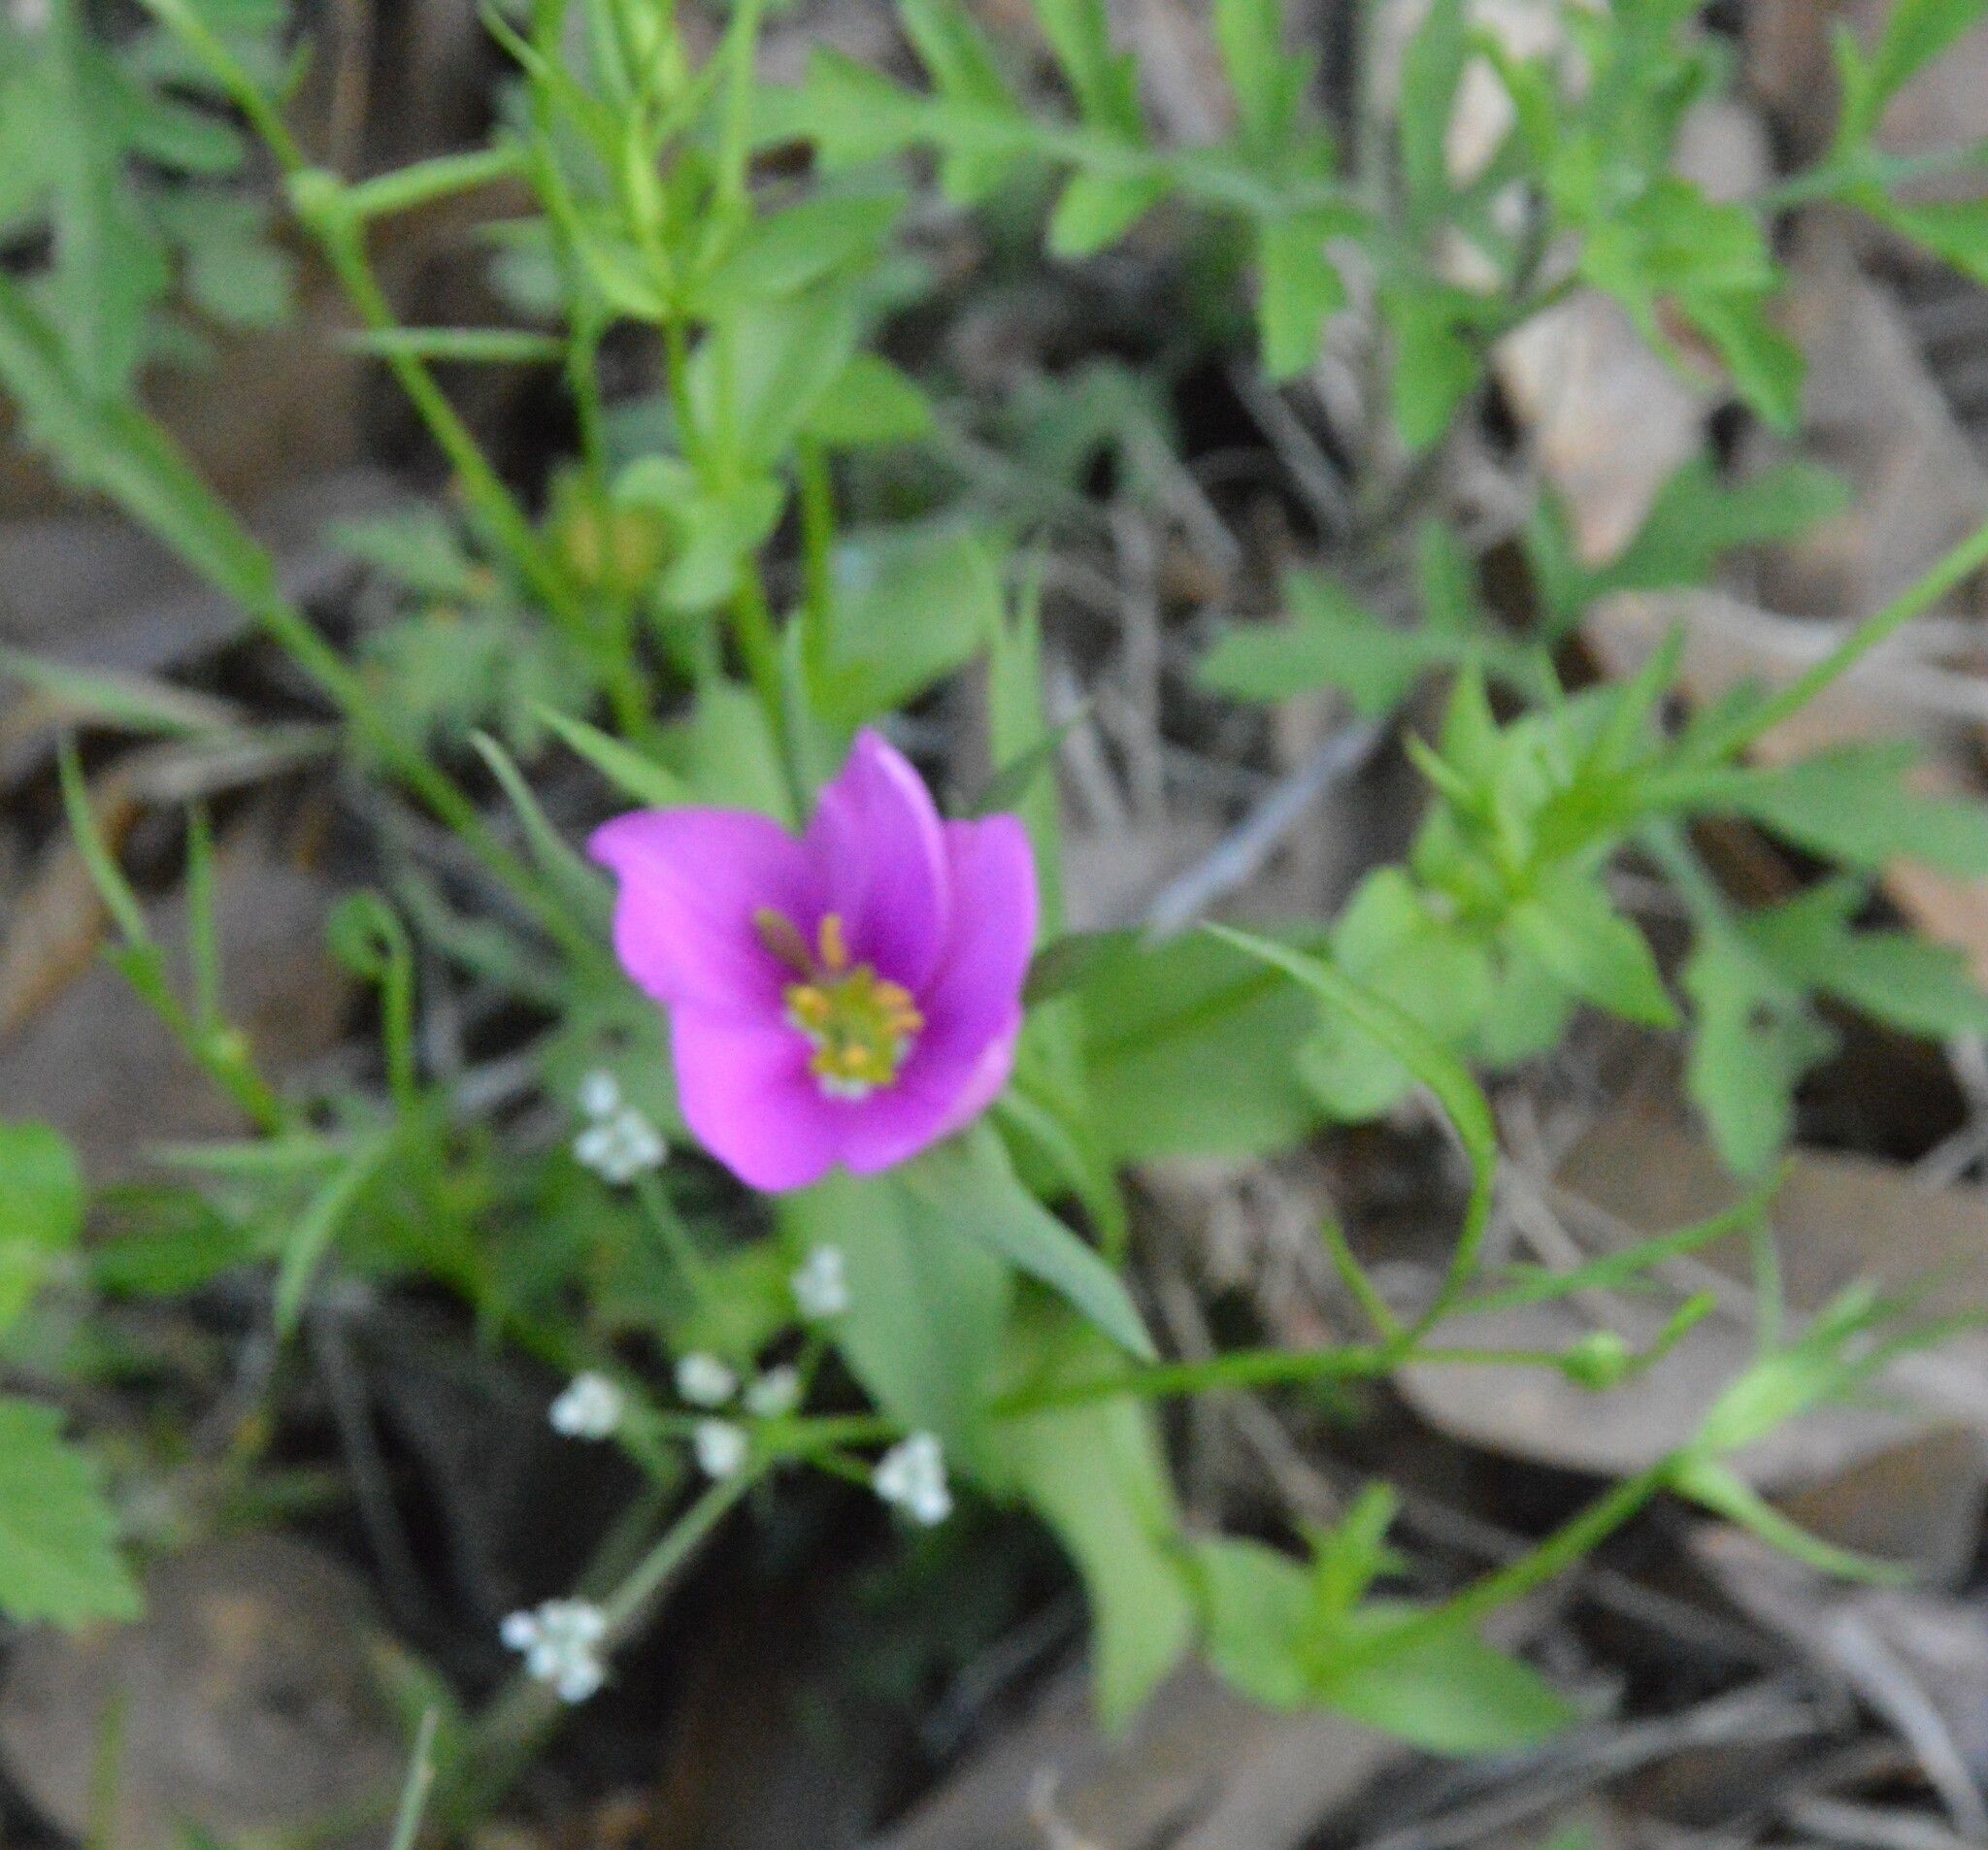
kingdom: Plantae
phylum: Tracheophyta
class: Magnoliopsida
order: Gentianales
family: Gentianaceae
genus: Sabatia
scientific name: Sabatia campestris
